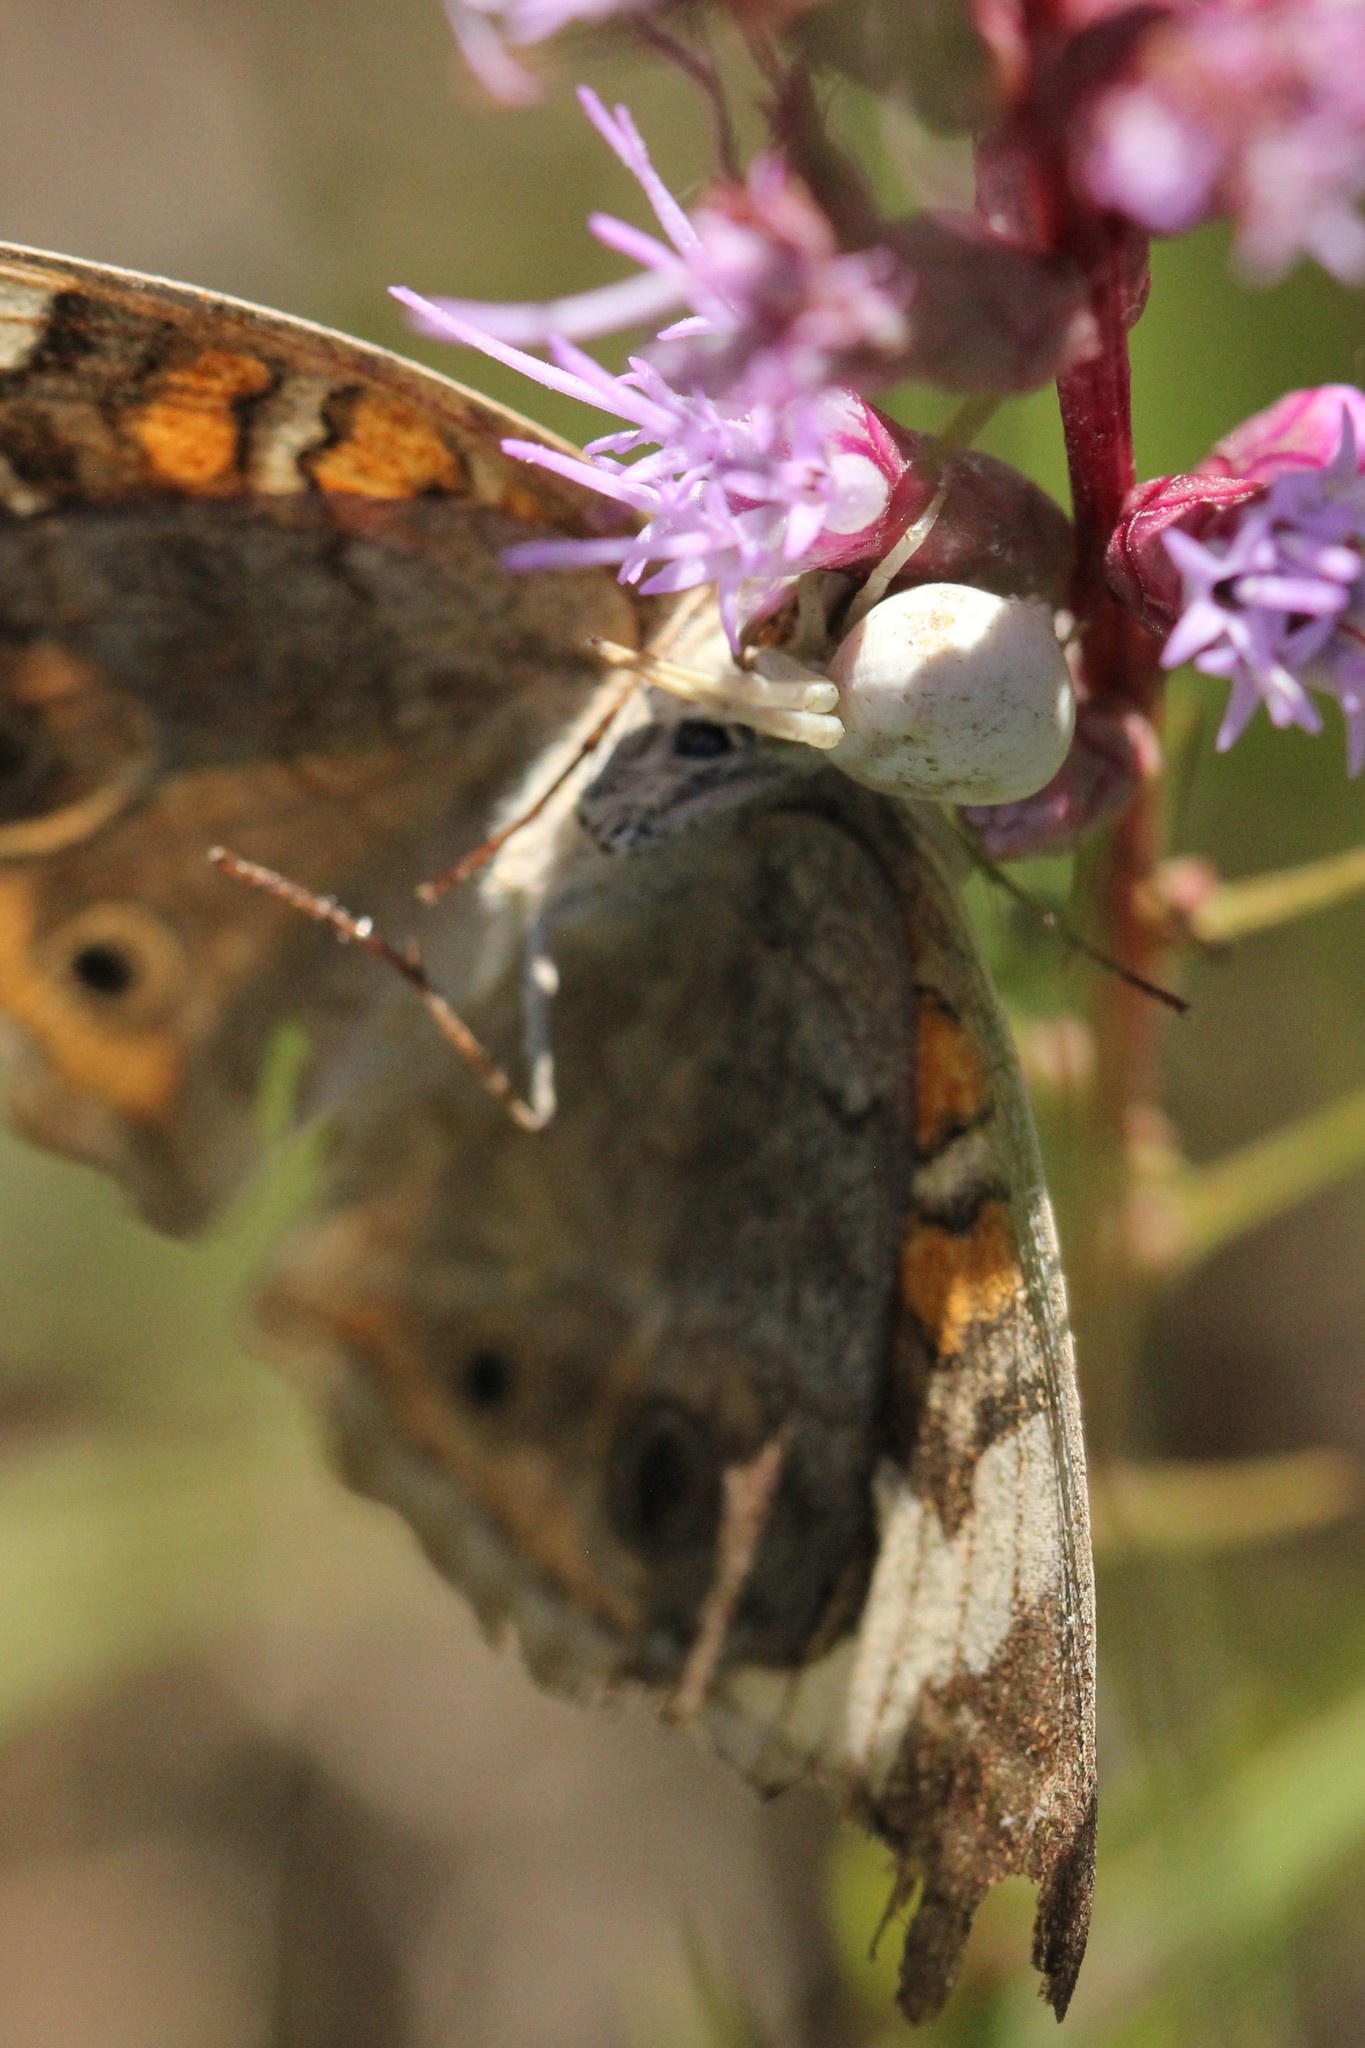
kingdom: Animalia
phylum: Arthropoda
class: Insecta
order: Lepidoptera
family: Nymphalidae
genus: Junonia
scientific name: Junonia coenia
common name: Common buckeye
